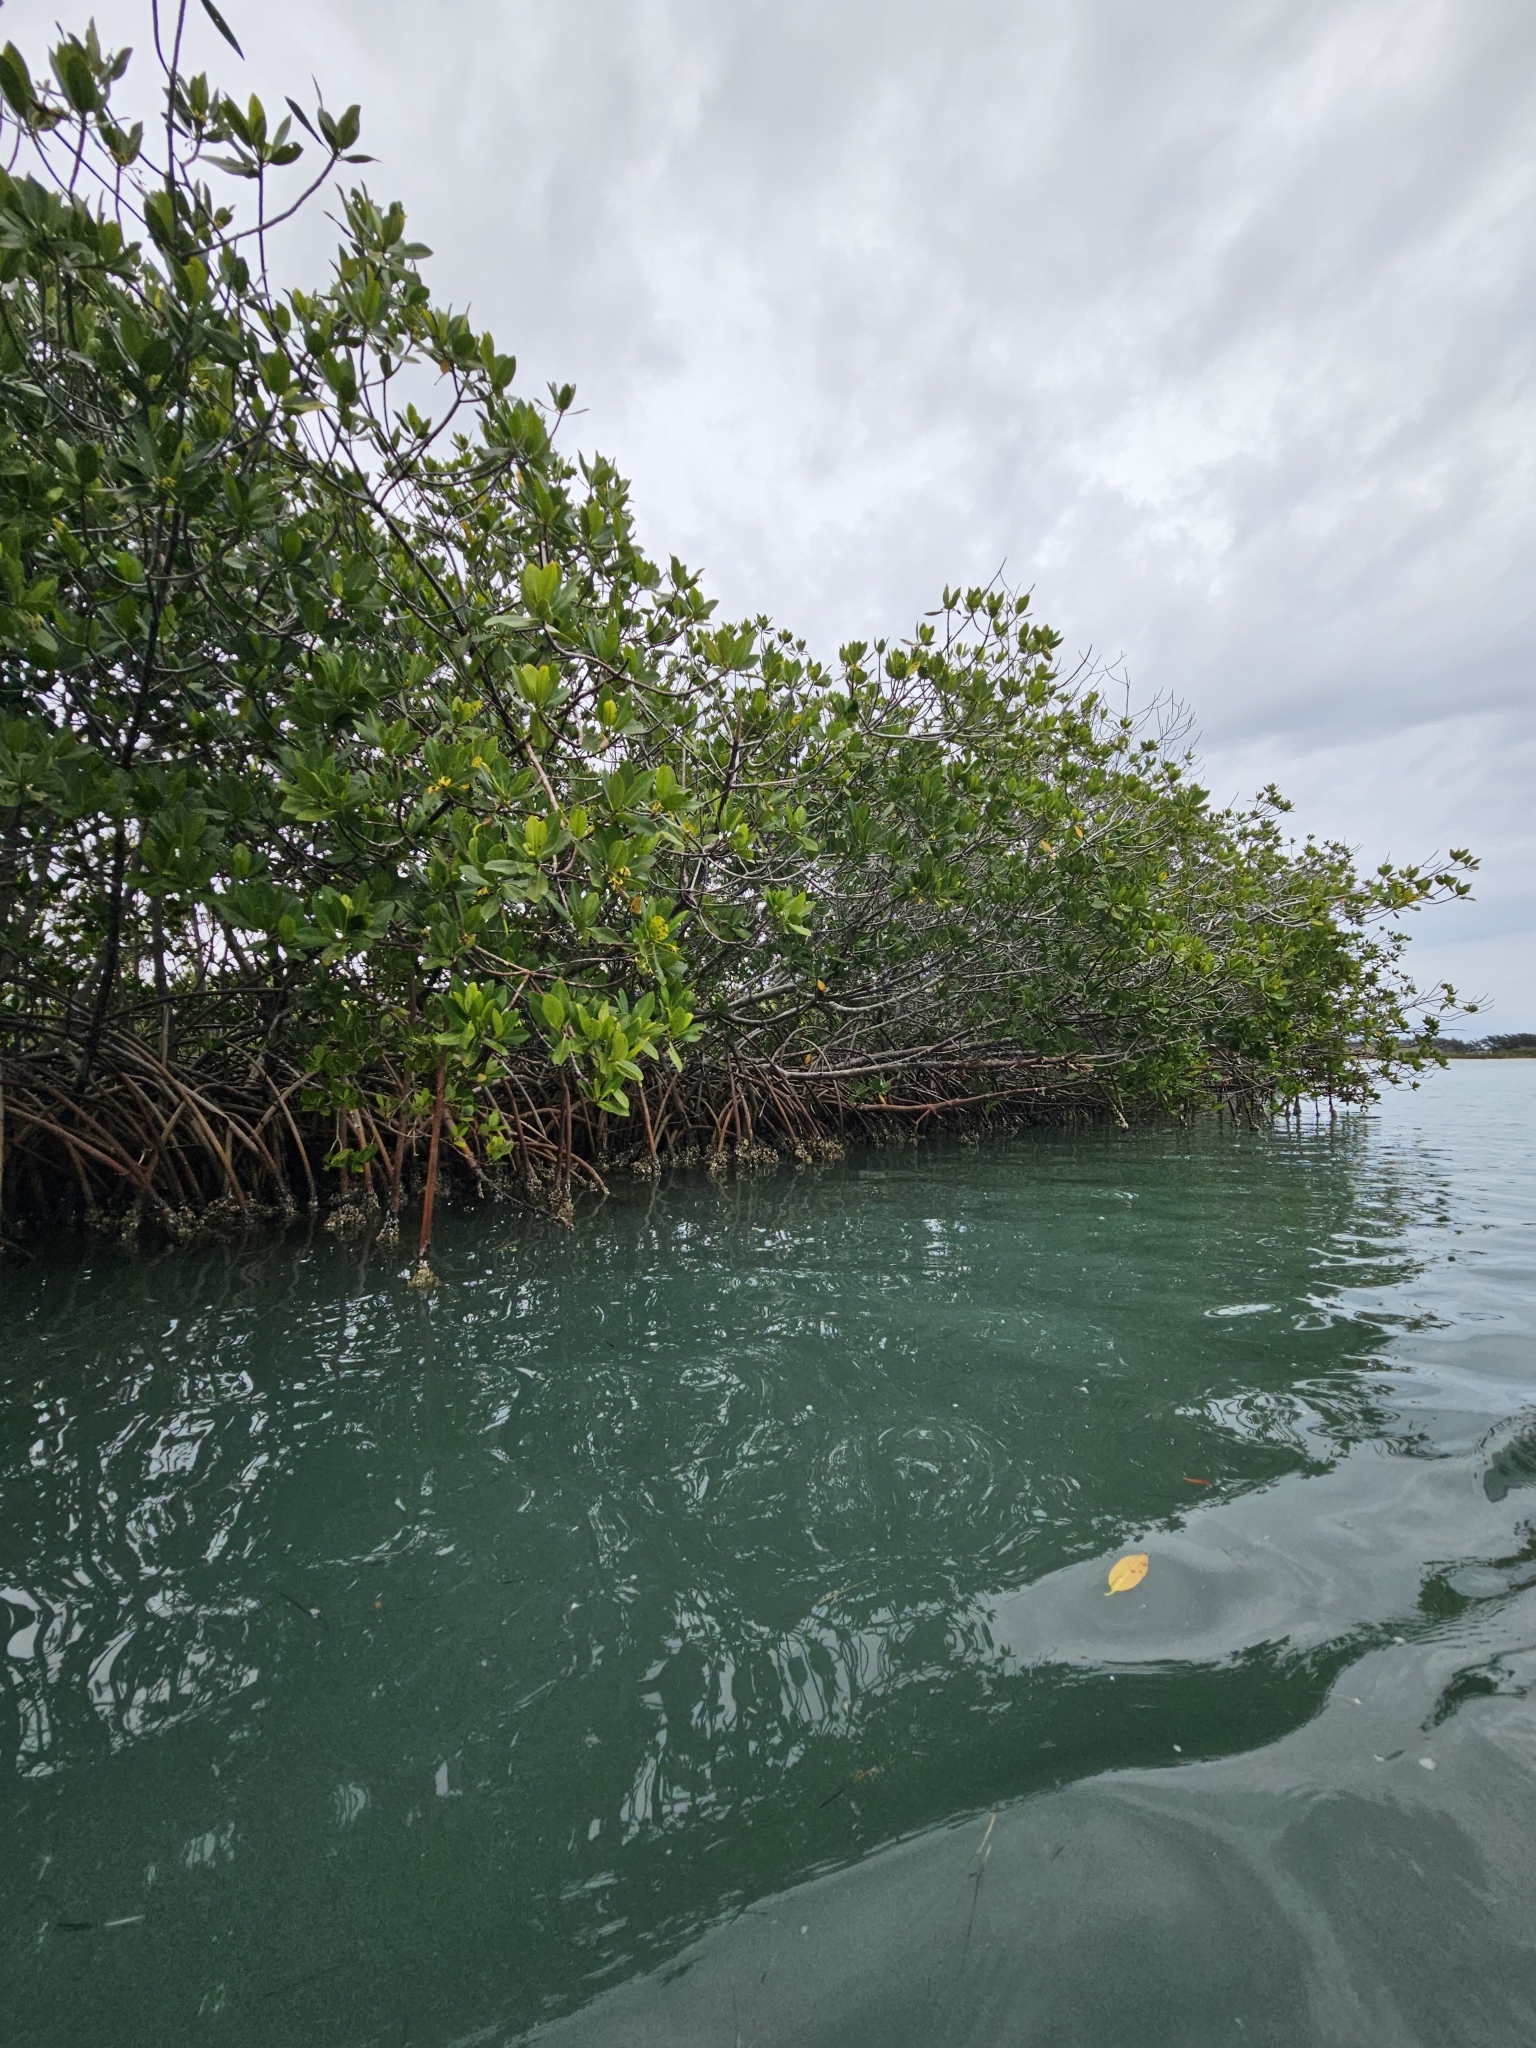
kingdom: Plantae
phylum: Tracheophyta
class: Magnoliopsida
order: Malpighiales
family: Rhizophoraceae
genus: Rhizophora
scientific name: Rhizophora mangle
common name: Red mangrove
